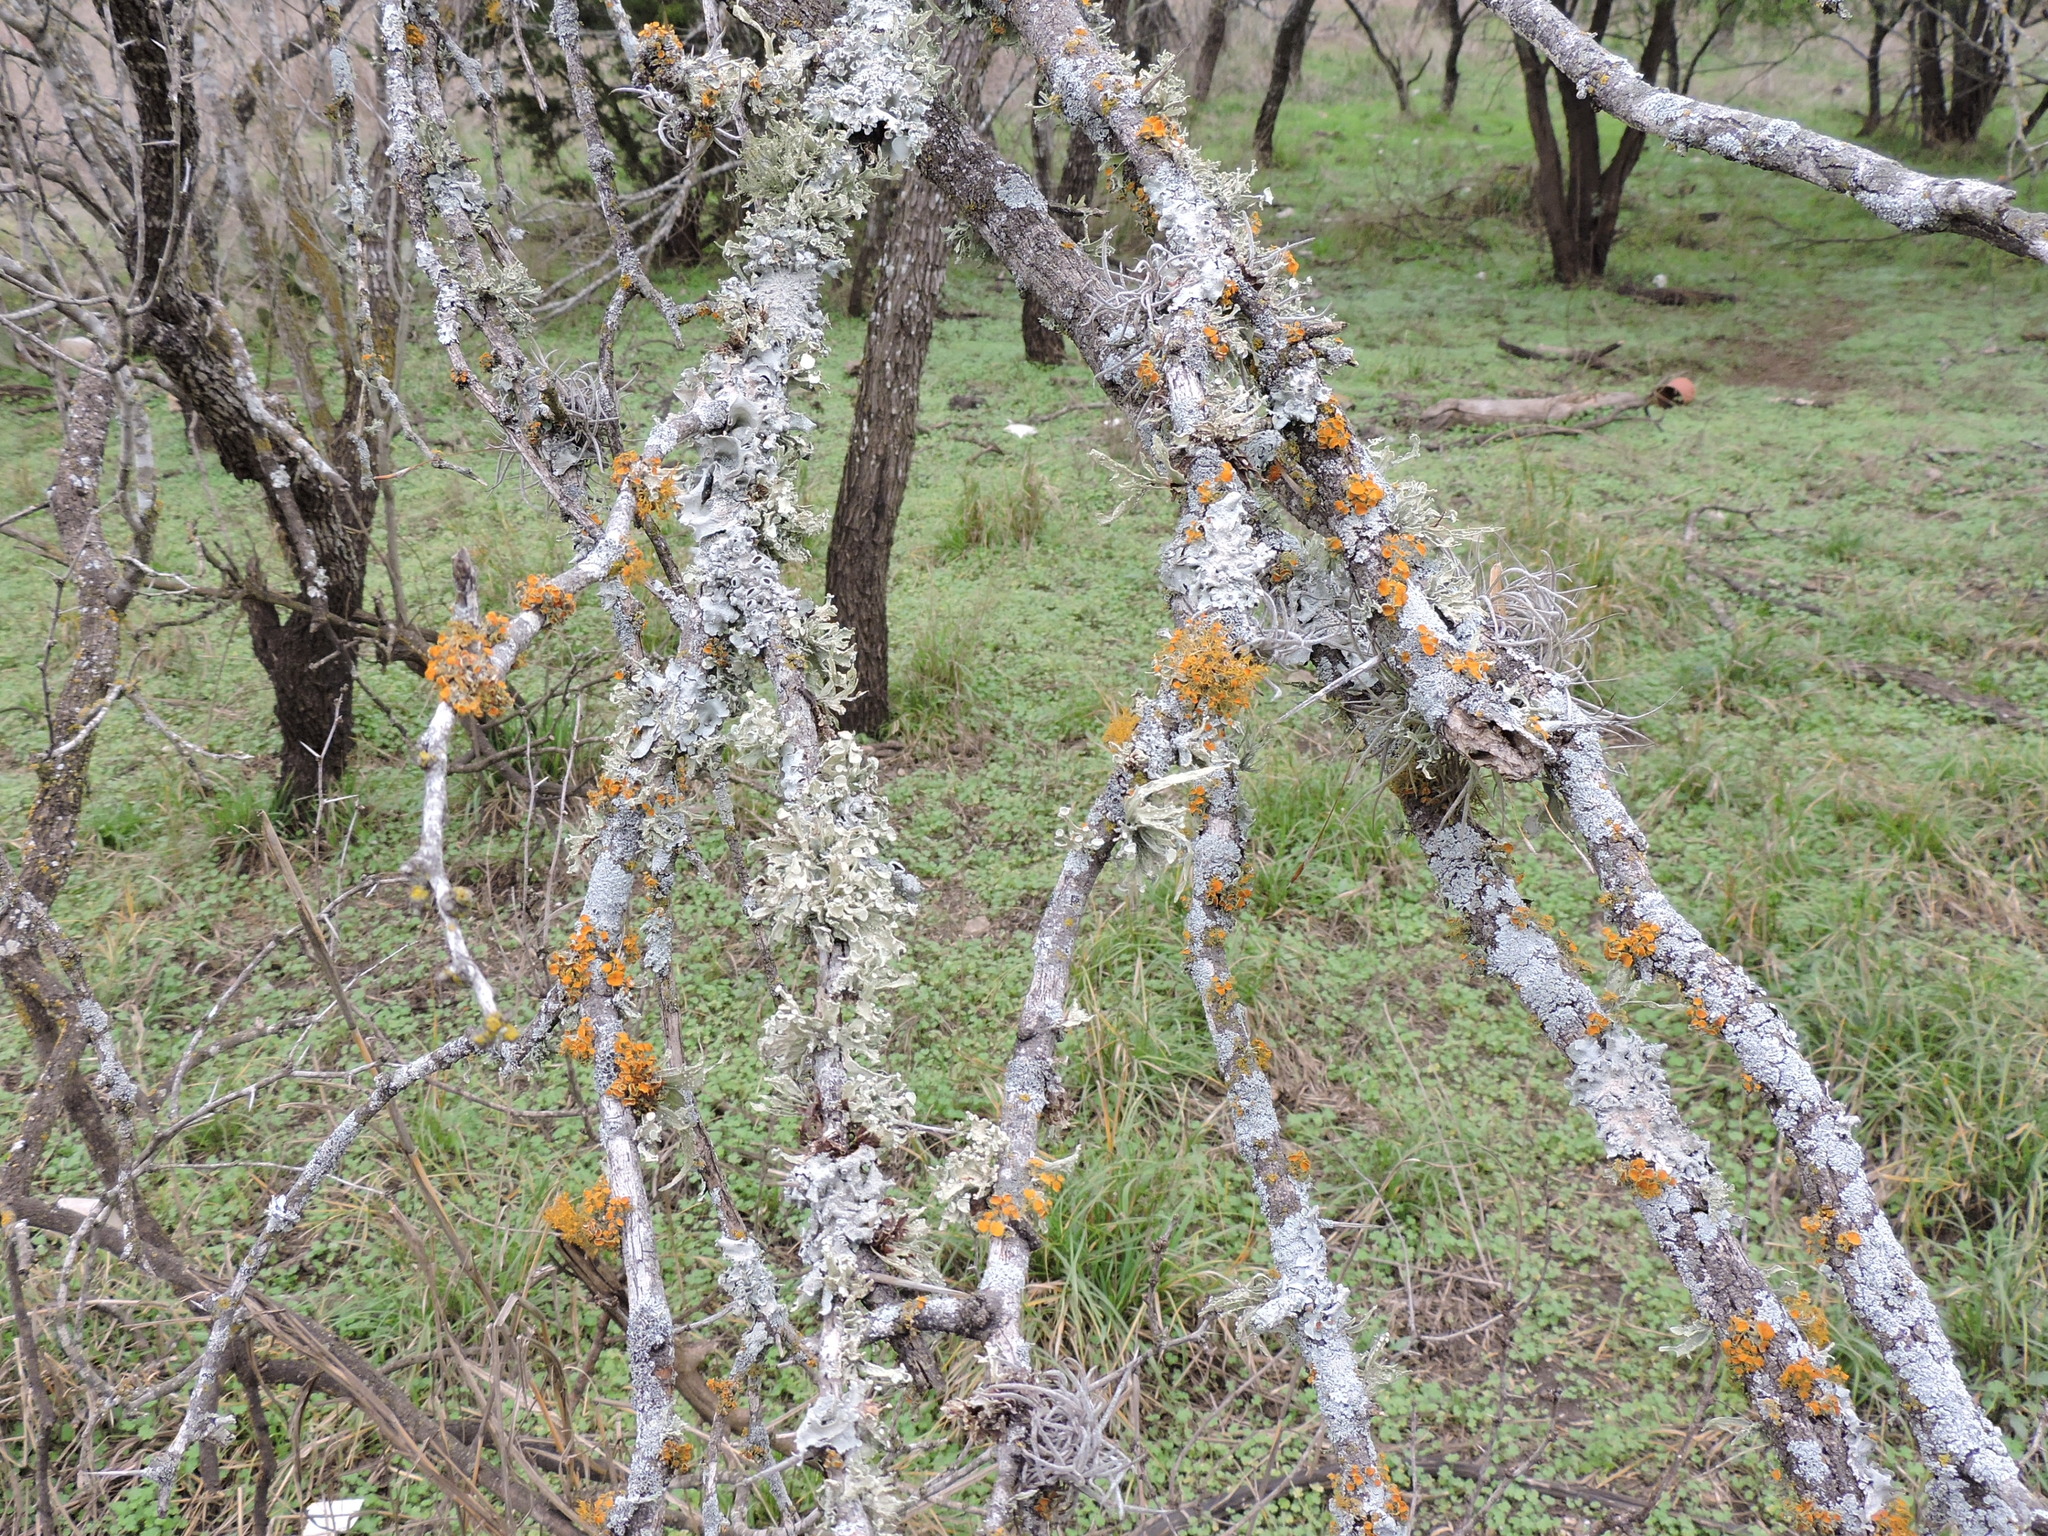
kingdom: Fungi
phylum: Ascomycota
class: Lecanoromycetes
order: Teloschistales
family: Teloschistaceae
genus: Niorma
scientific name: Niorma chrysophthalma
